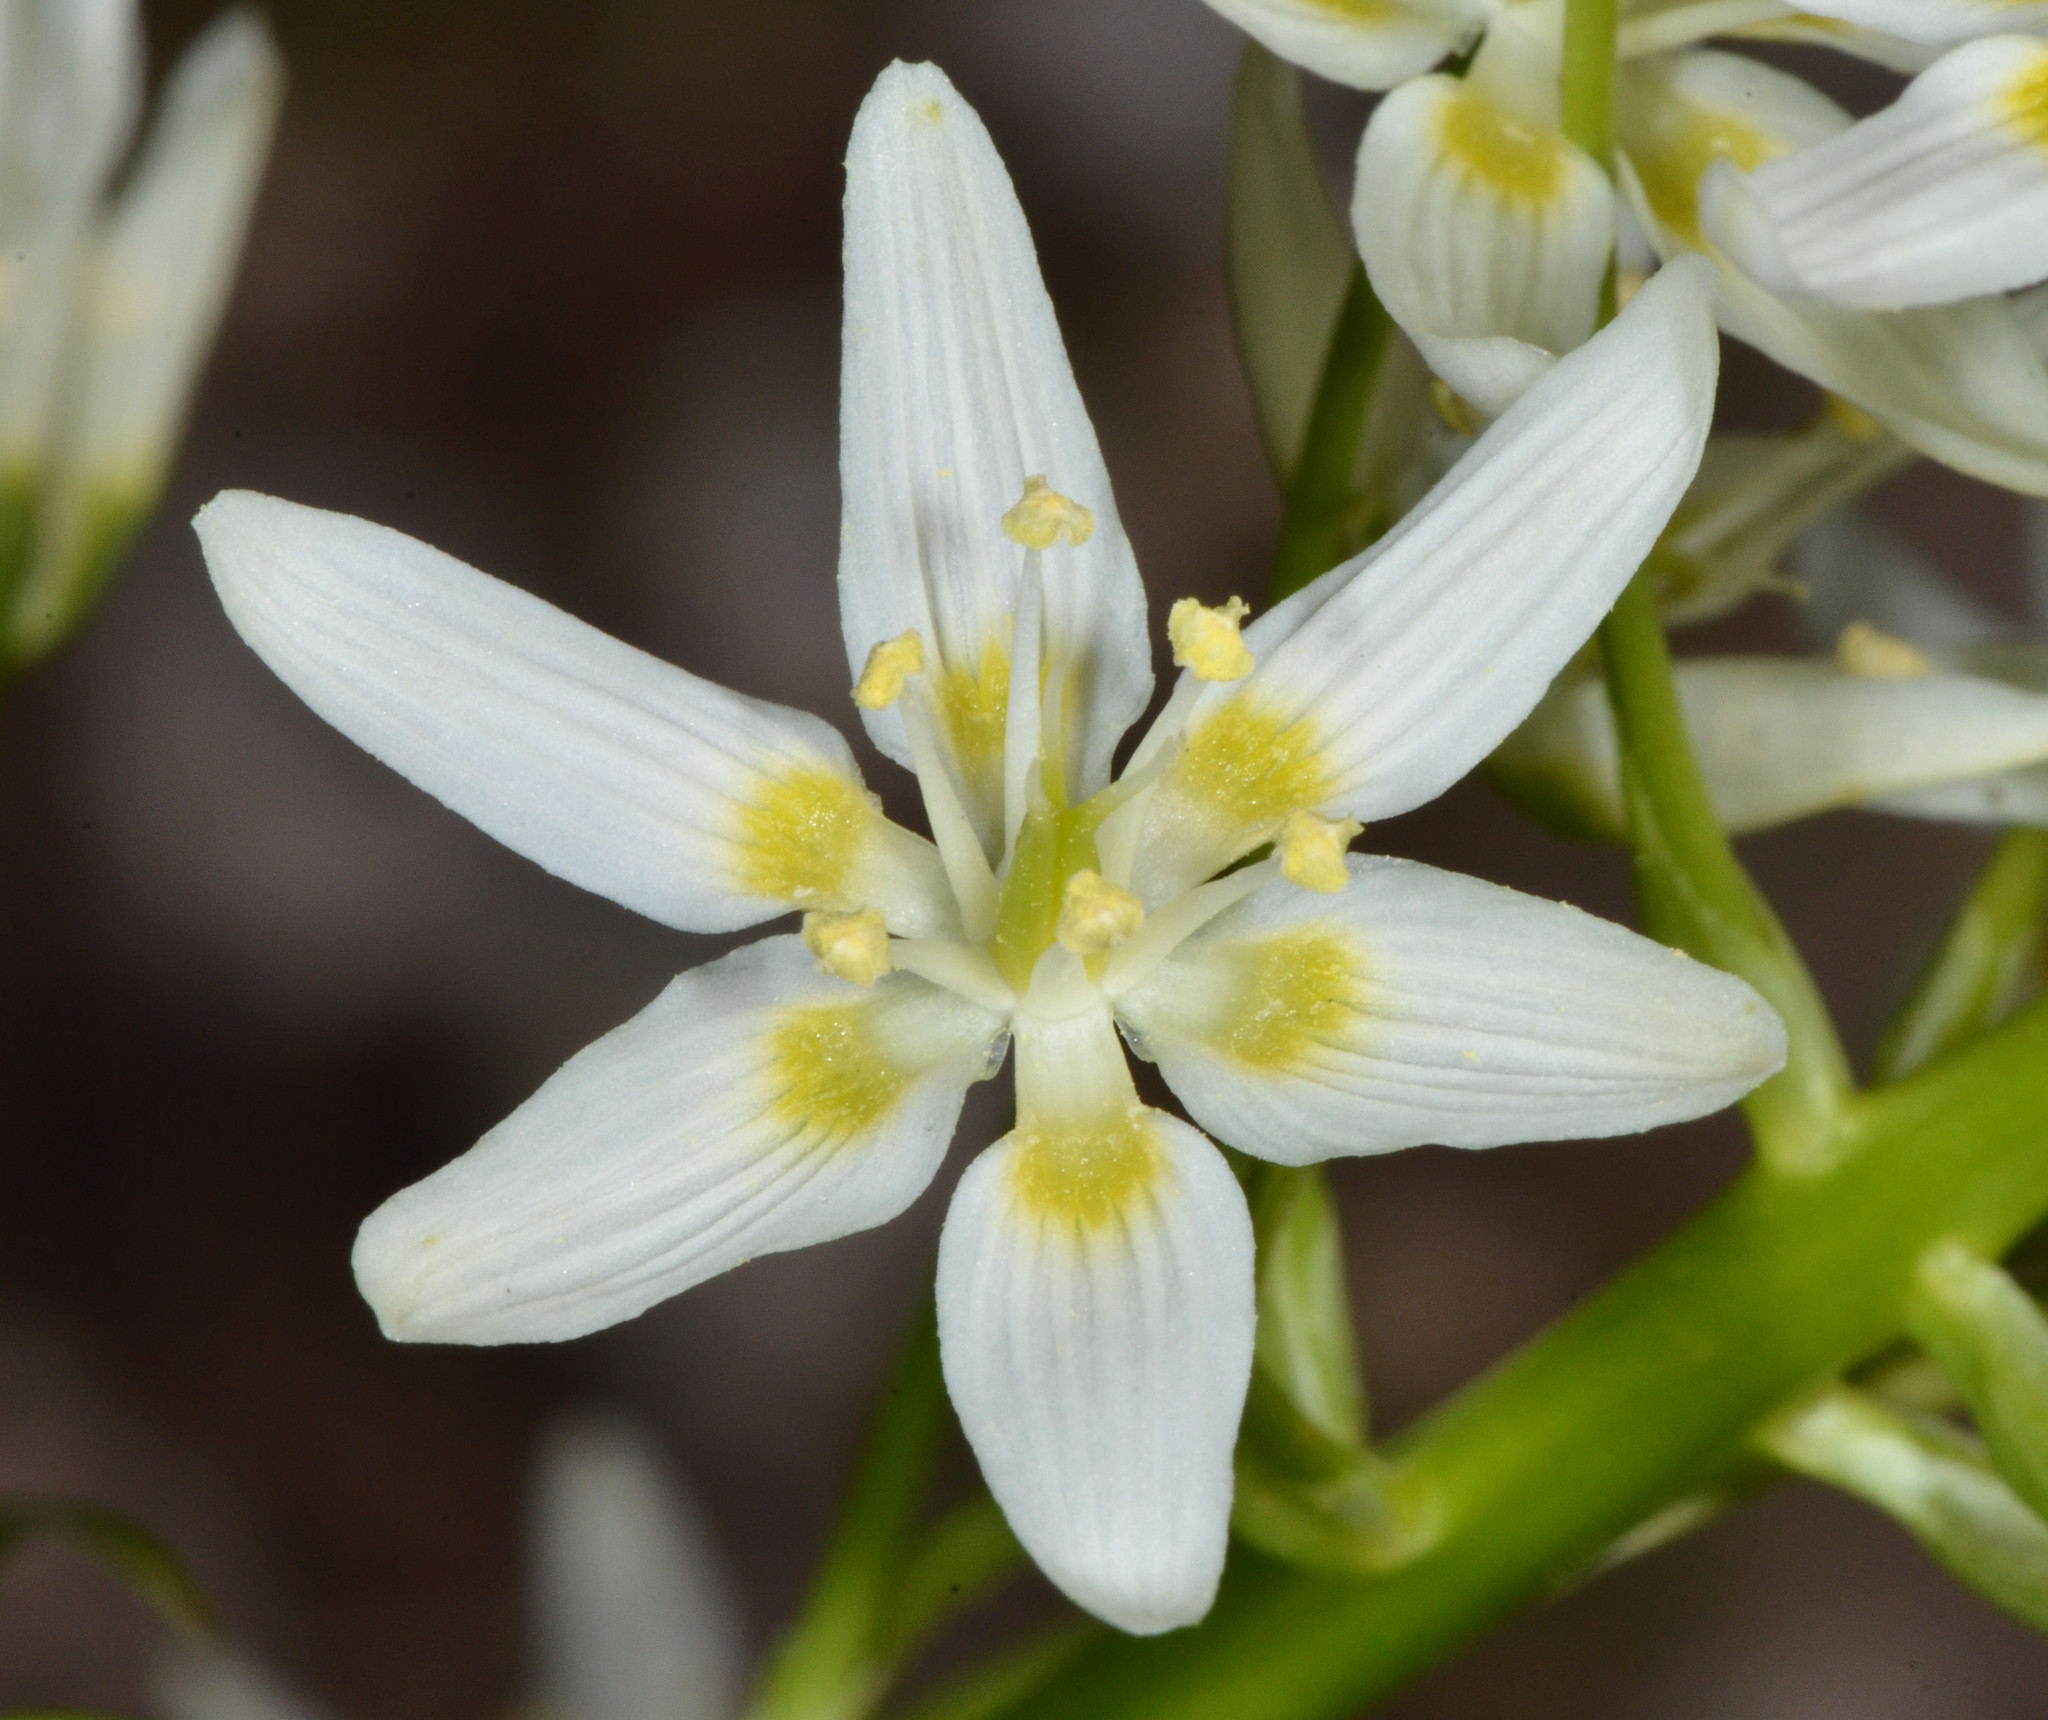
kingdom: Plantae
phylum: Tracheophyta
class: Liliopsida
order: Liliales
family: Melanthiaceae
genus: Toxicoscordion
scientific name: Toxicoscordion fremontii
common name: Fremont's death camas
